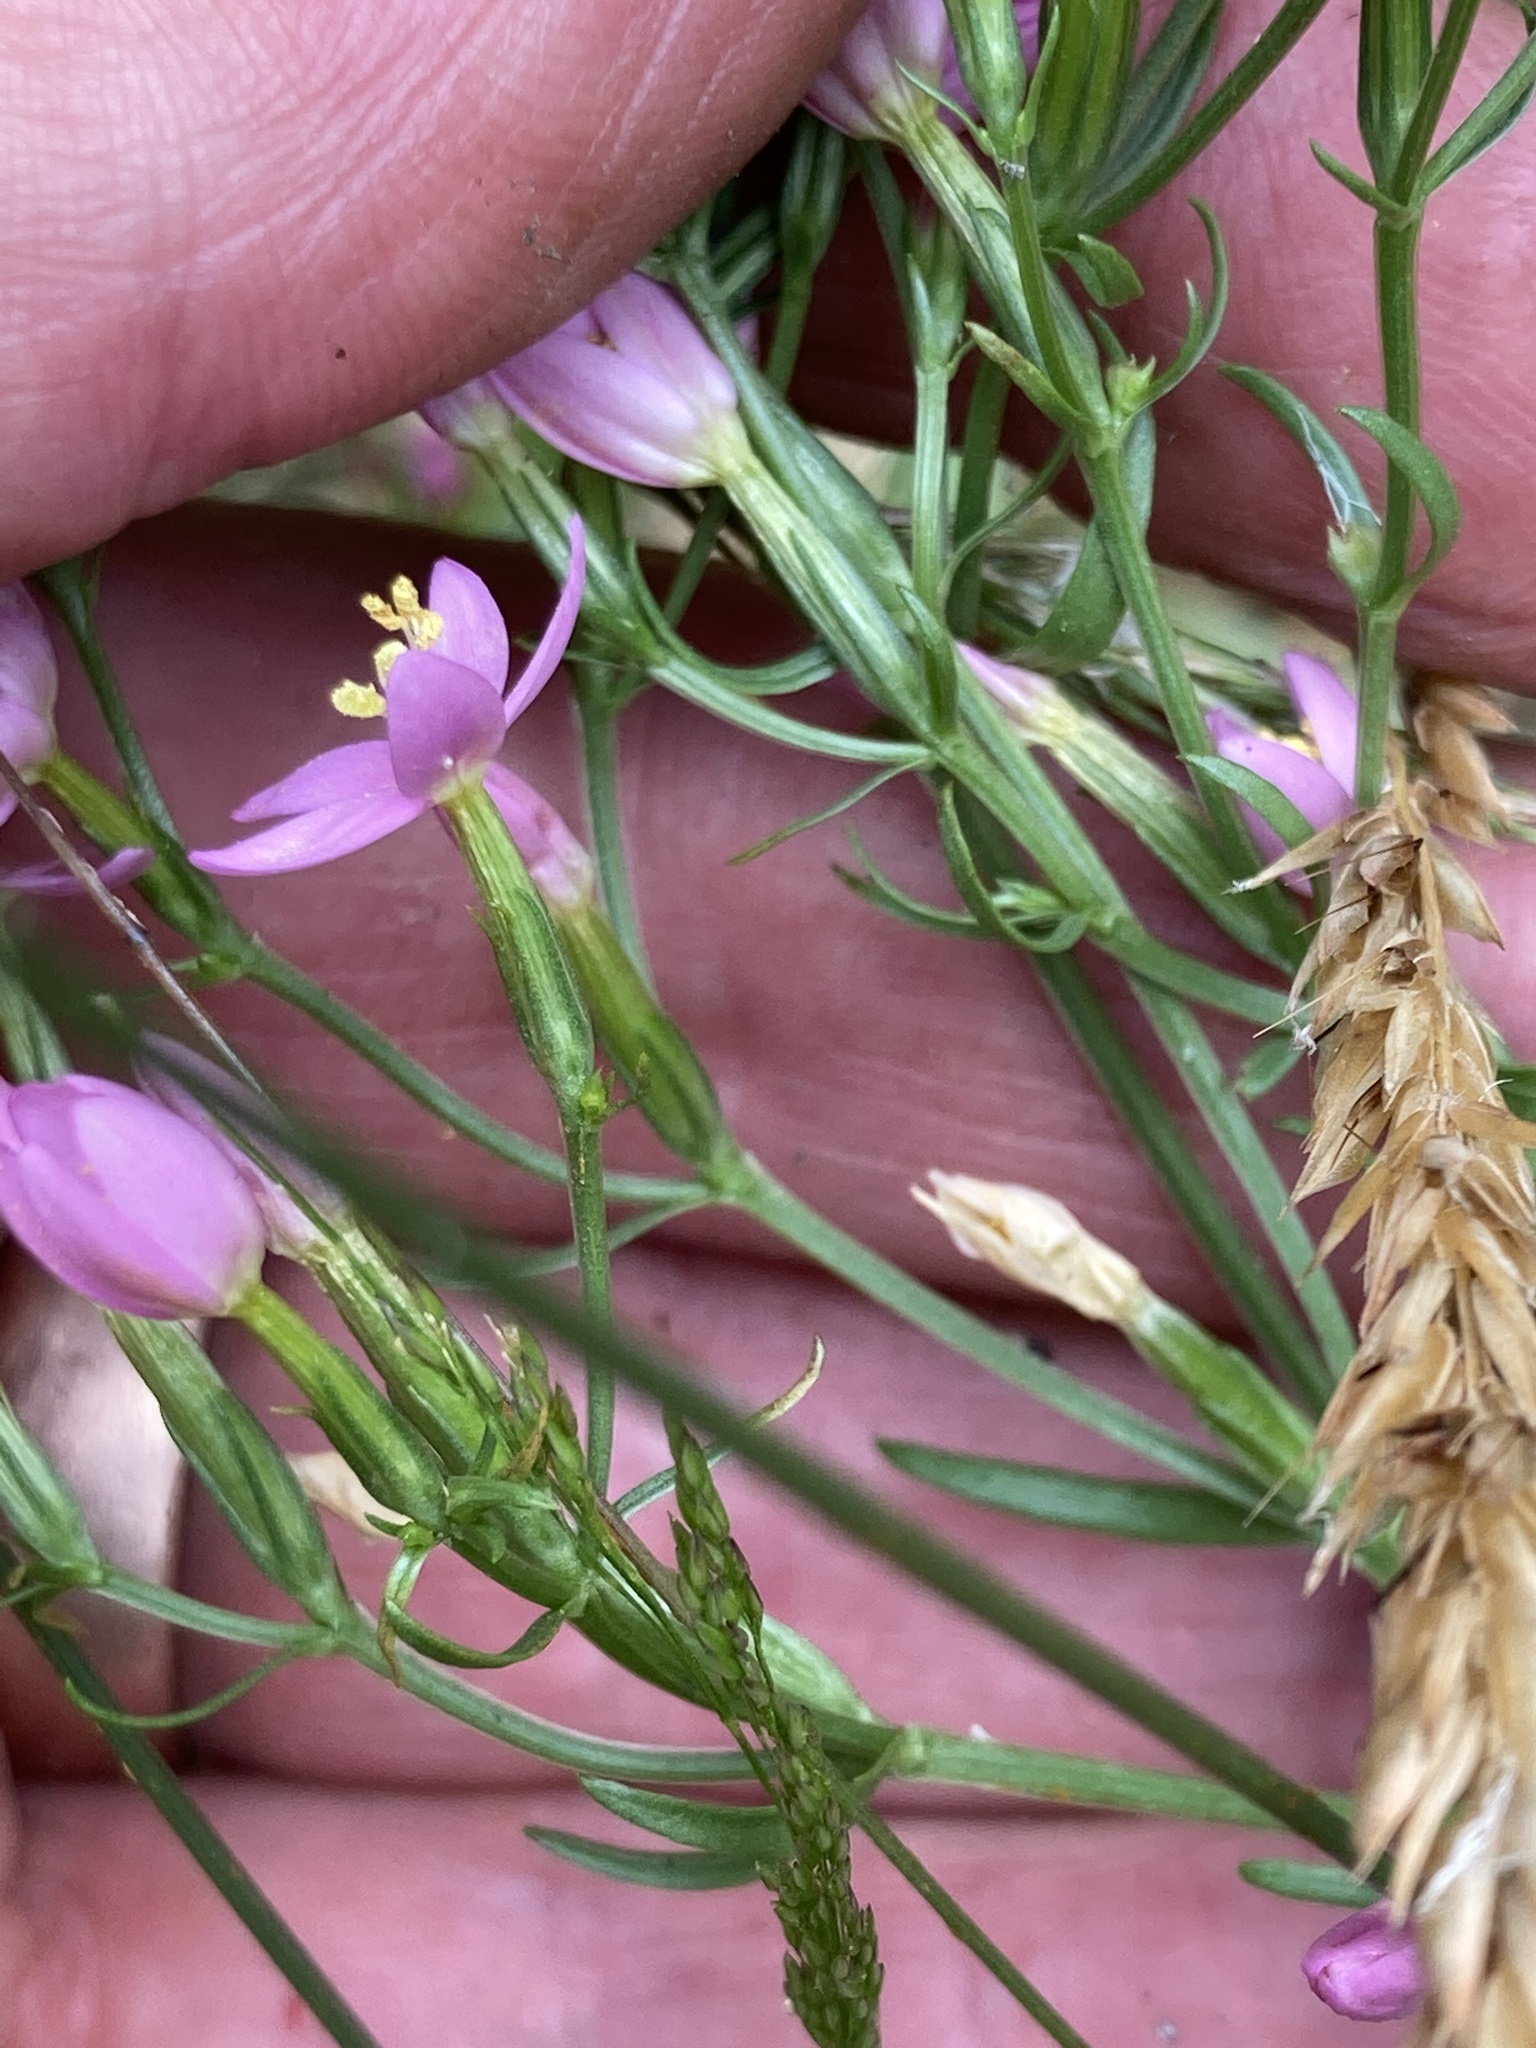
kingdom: Plantae
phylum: Tracheophyta
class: Magnoliopsida
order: Gentianales
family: Gentianaceae
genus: Centaurium
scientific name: Centaurium erythraea
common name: Common centaury
